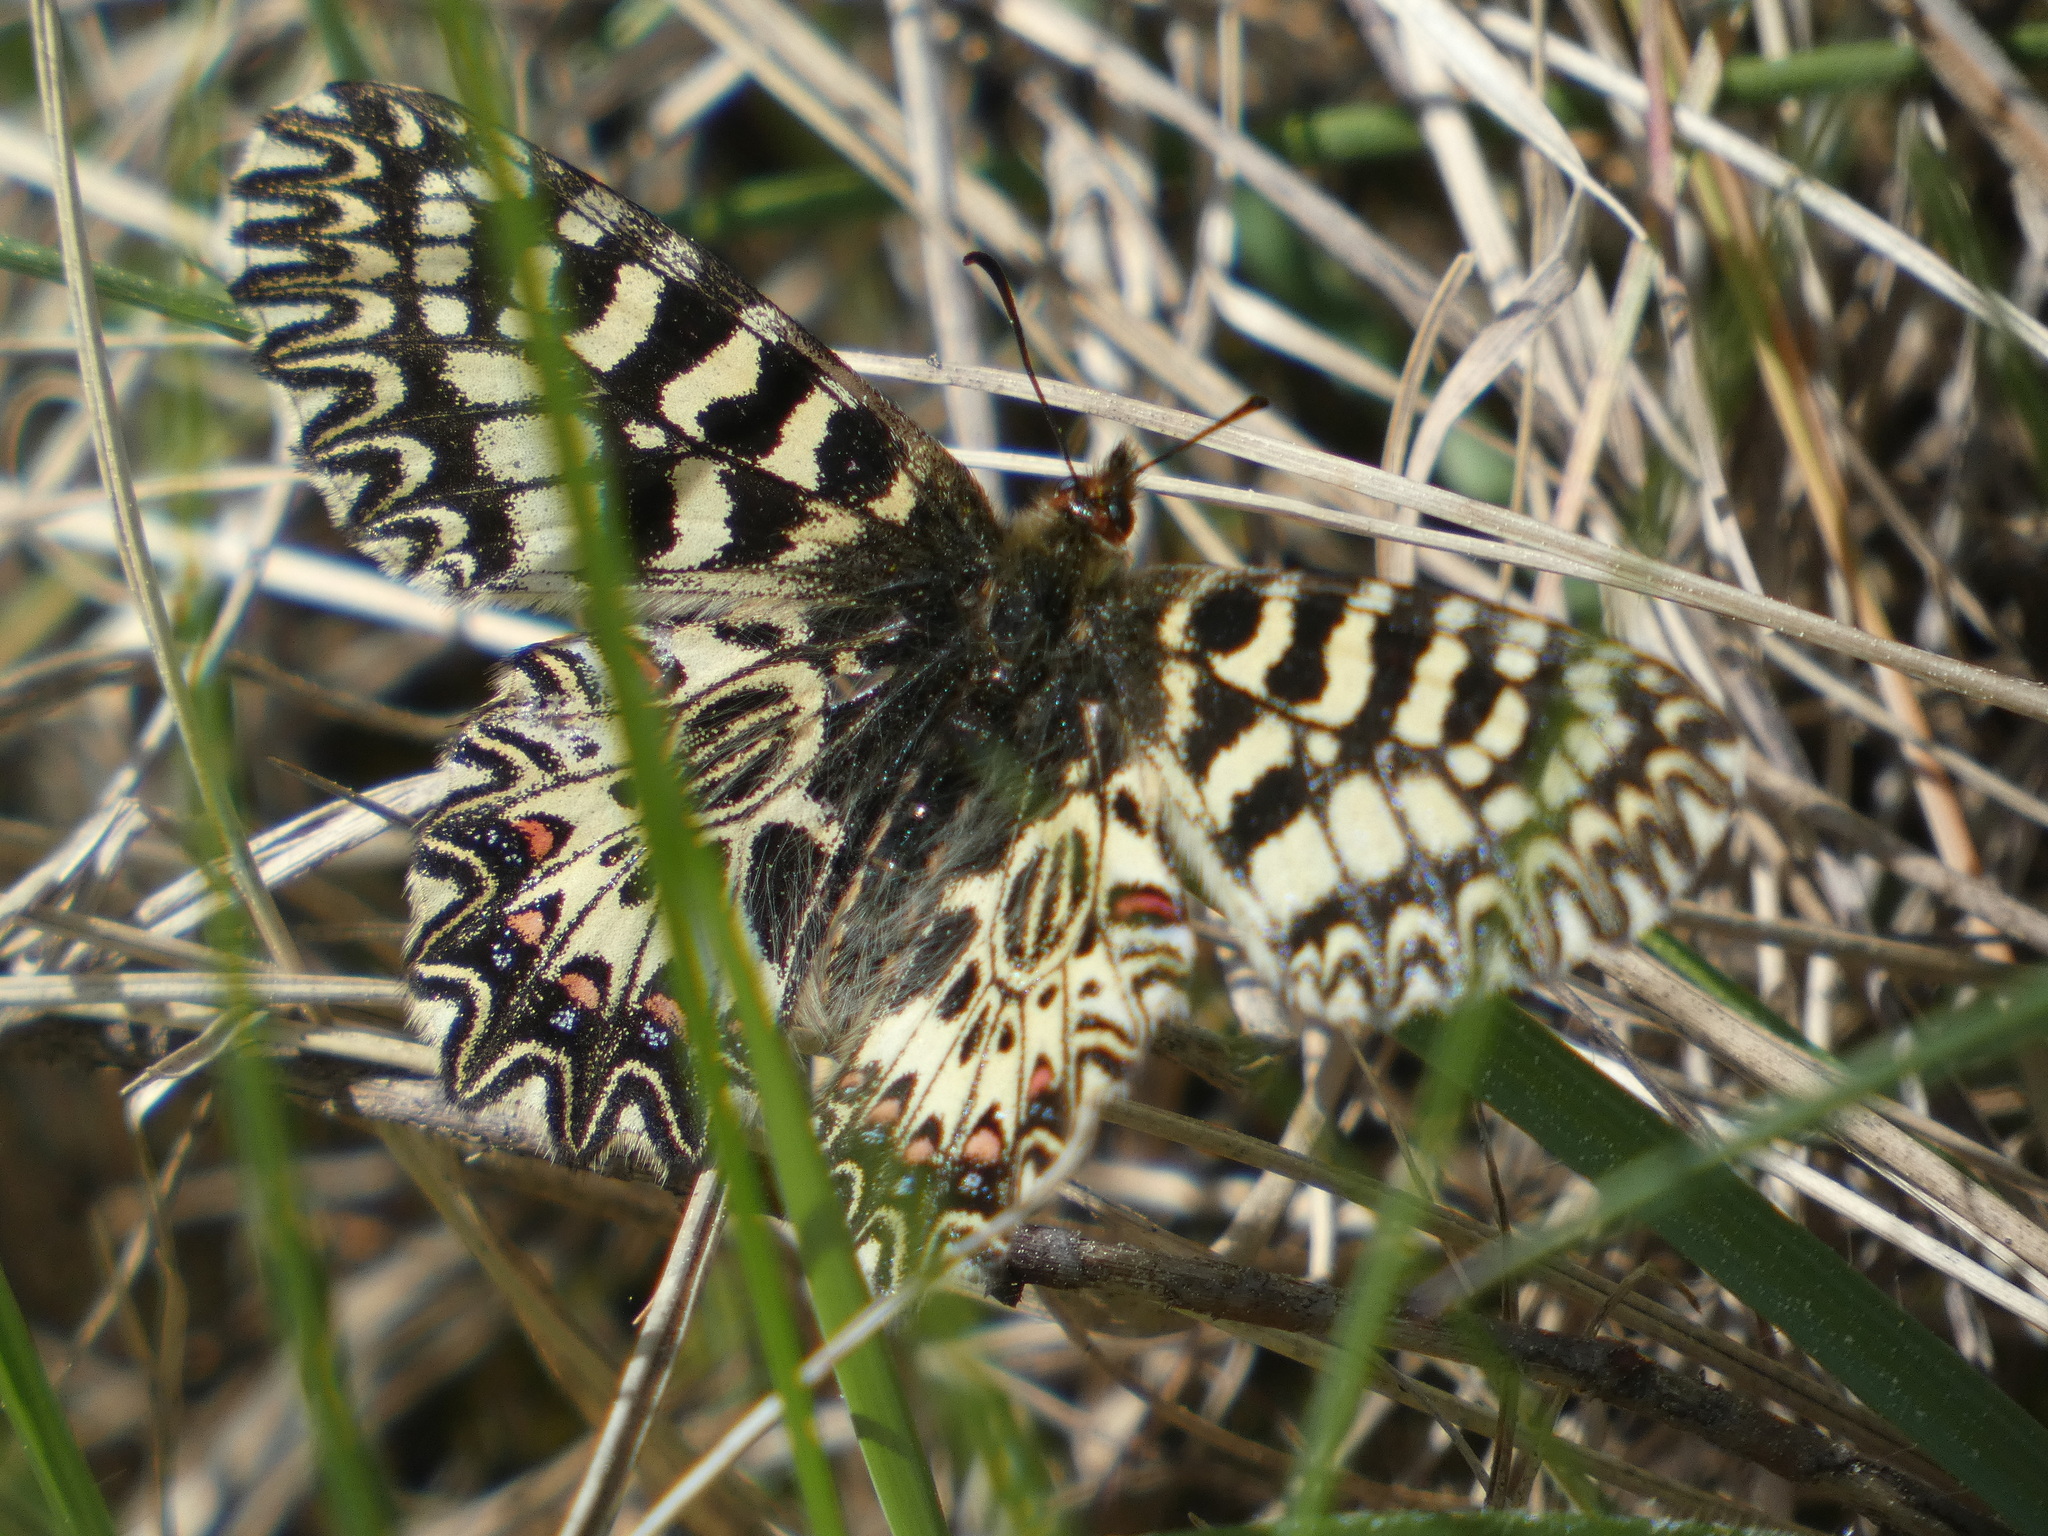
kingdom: Animalia
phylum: Arthropoda
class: Insecta
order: Lepidoptera
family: Papilionidae
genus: Zerynthia
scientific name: Zerynthia polyxena
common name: Southern festoon
